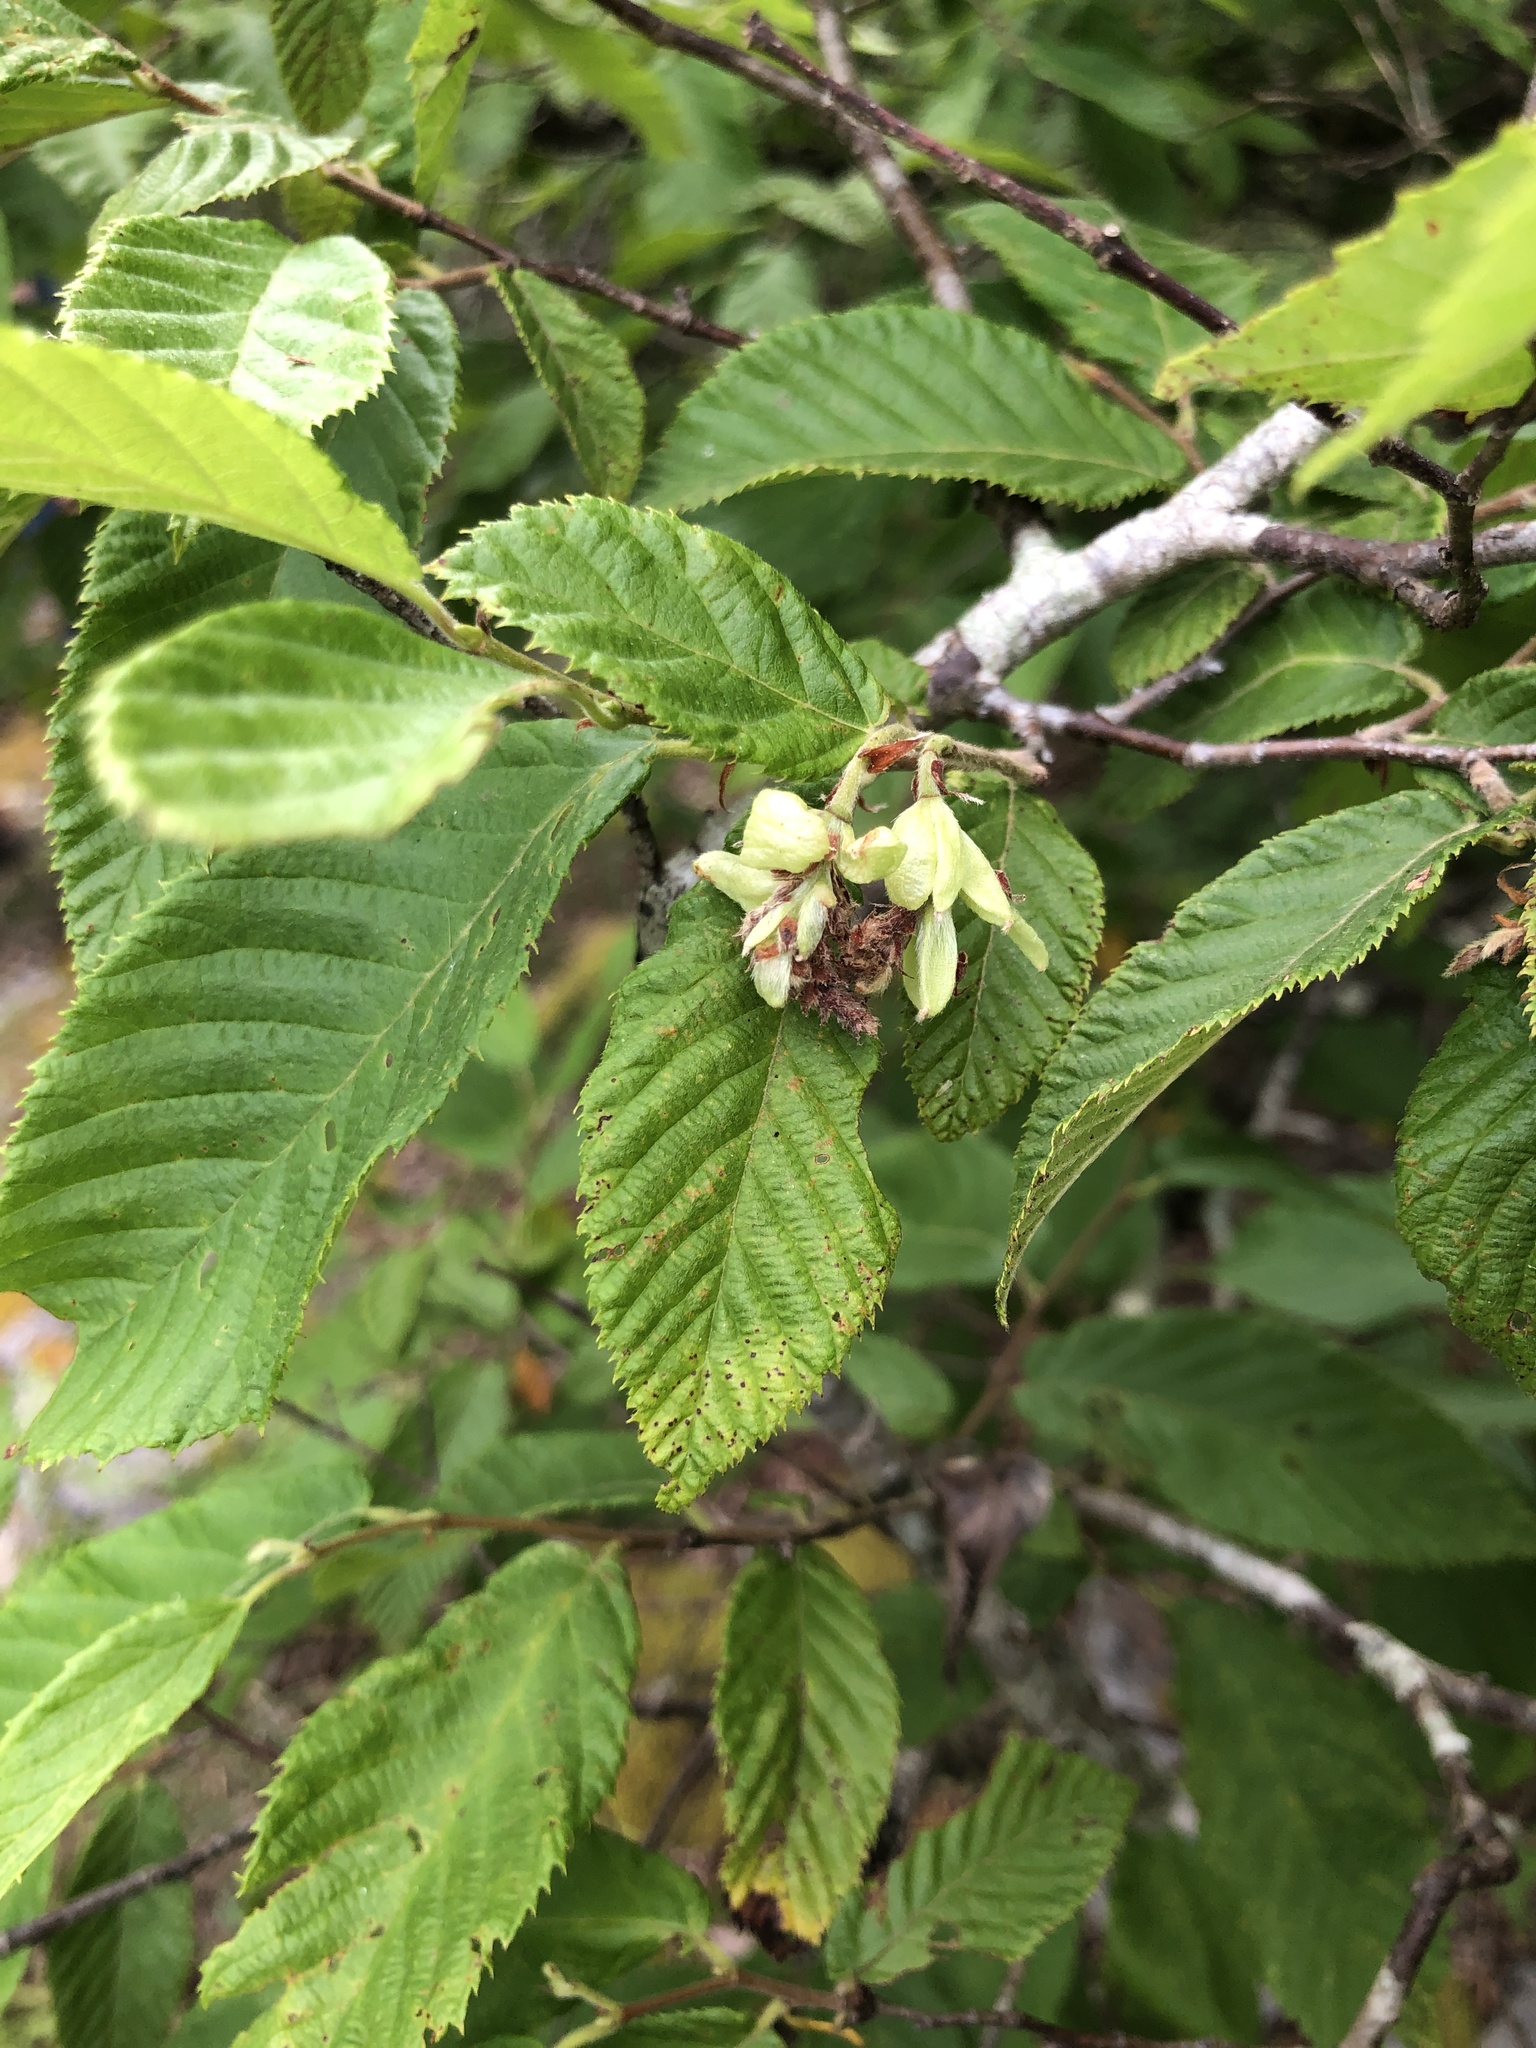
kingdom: Plantae
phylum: Tracheophyta
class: Magnoliopsida
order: Fagales
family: Betulaceae
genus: Ostrya
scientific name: Ostrya virginiana
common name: Ironwood
